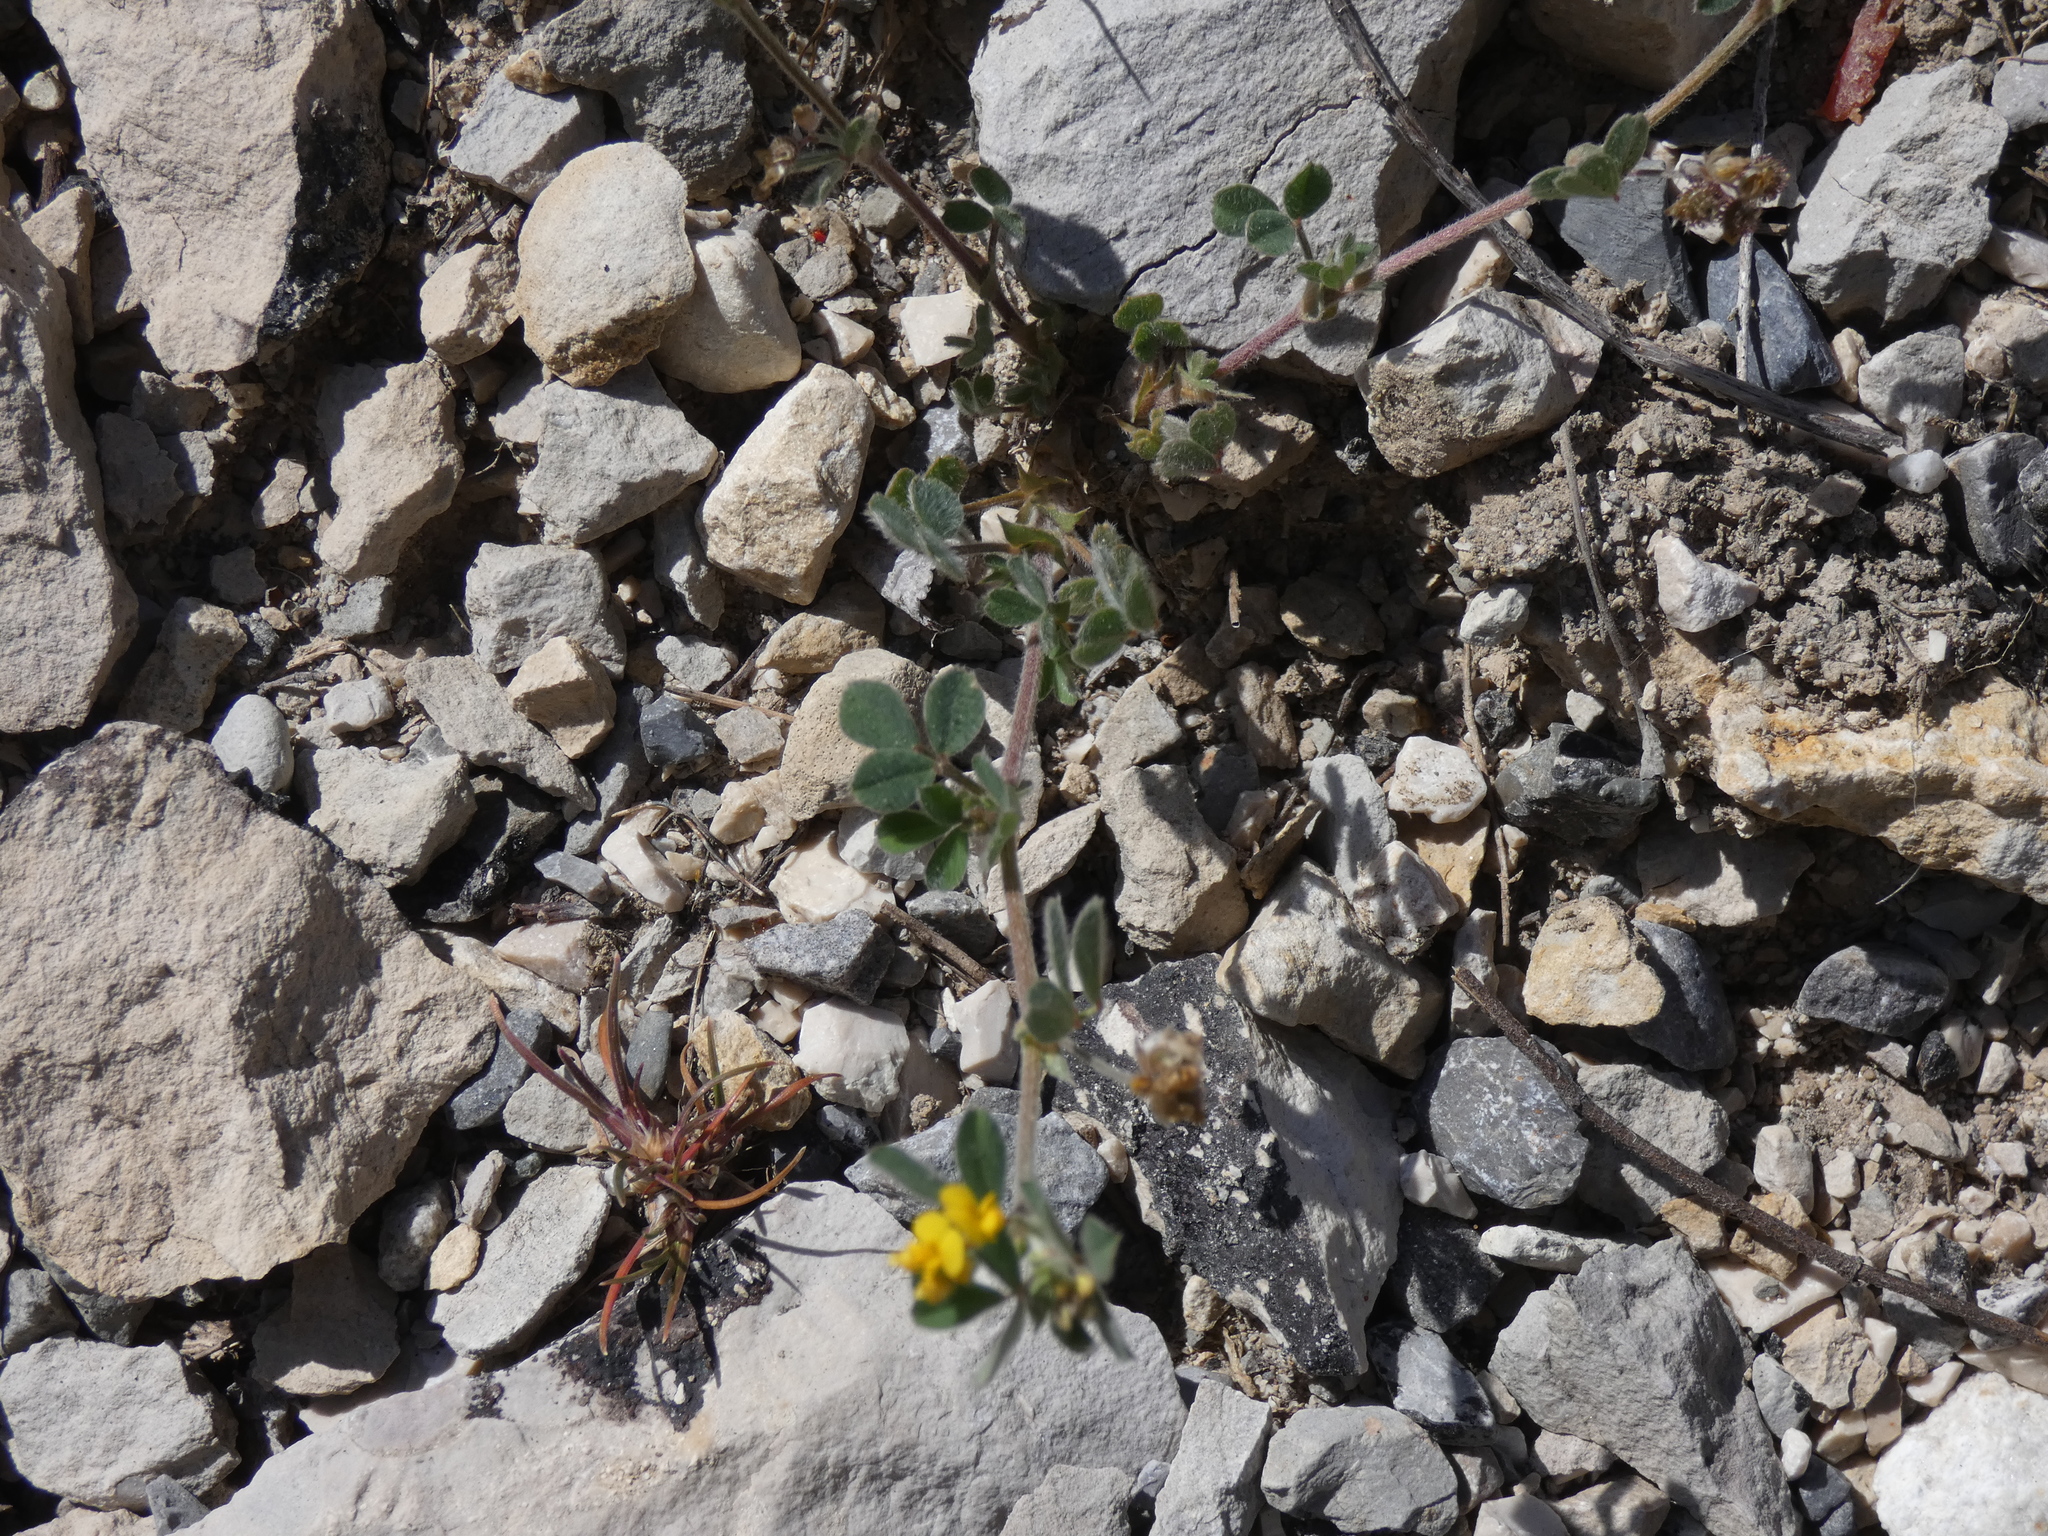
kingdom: Plantae
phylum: Tracheophyta
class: Magnoliopsida
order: Fabales
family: Fabaceae
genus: Medicago
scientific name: Medicago minima
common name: Little bur-clover
